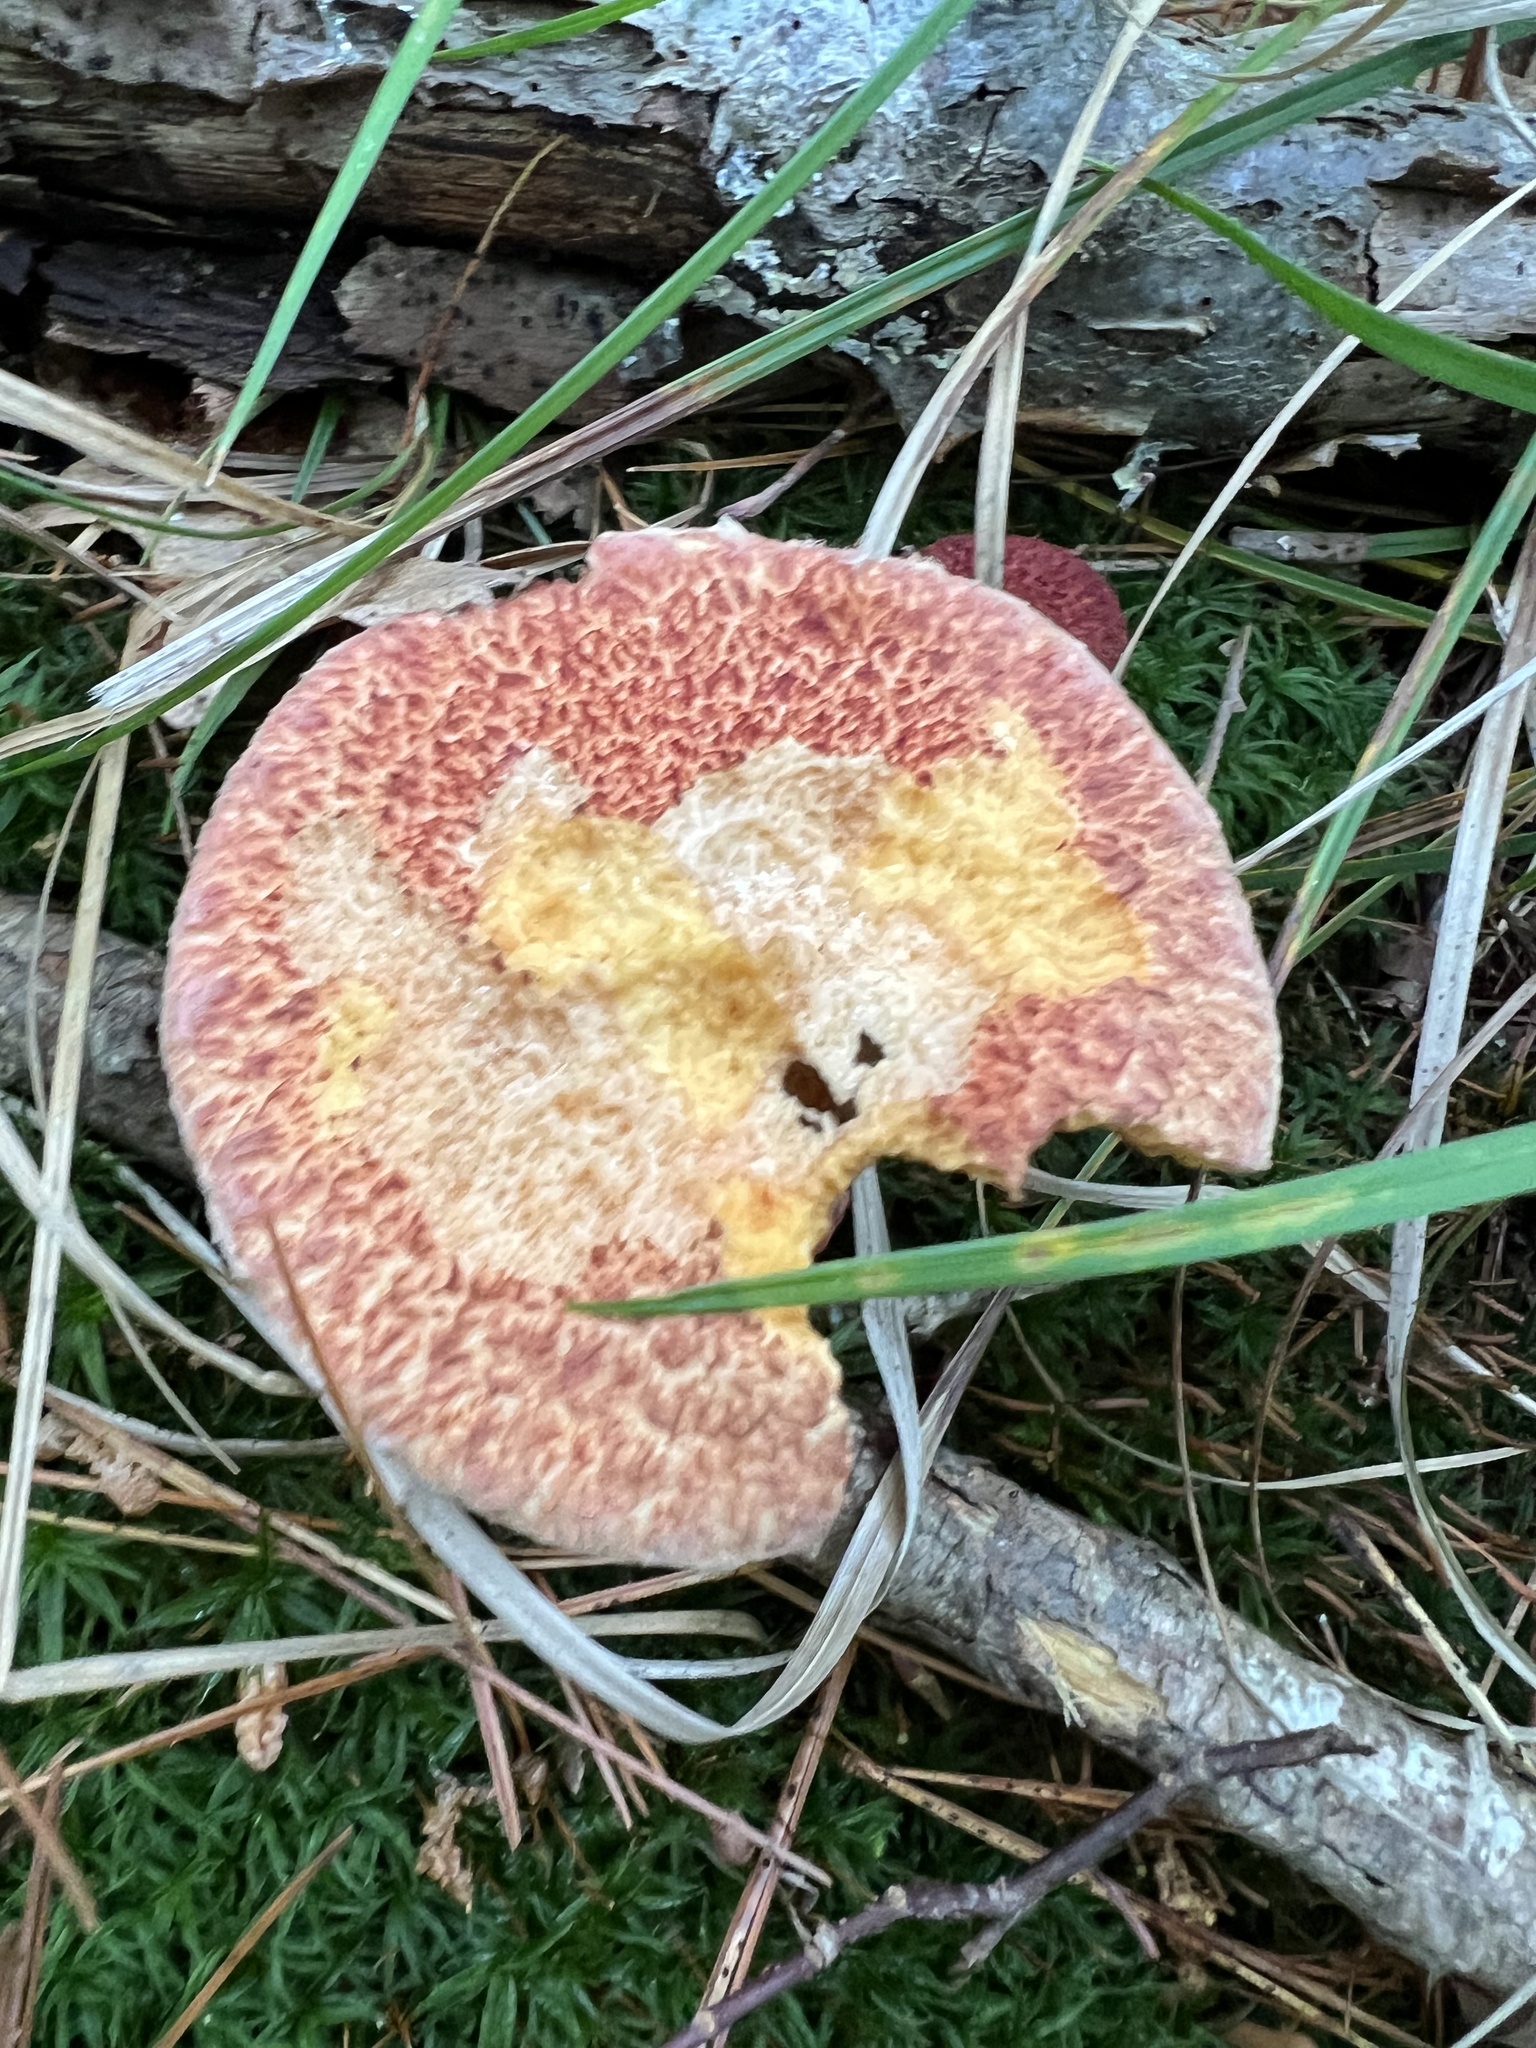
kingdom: Fungi
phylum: Basidiomycota
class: Agaricomycetes
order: Boletales
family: Suillaceae
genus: Suillus
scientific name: Suillus spraguei
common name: Painted suillus
